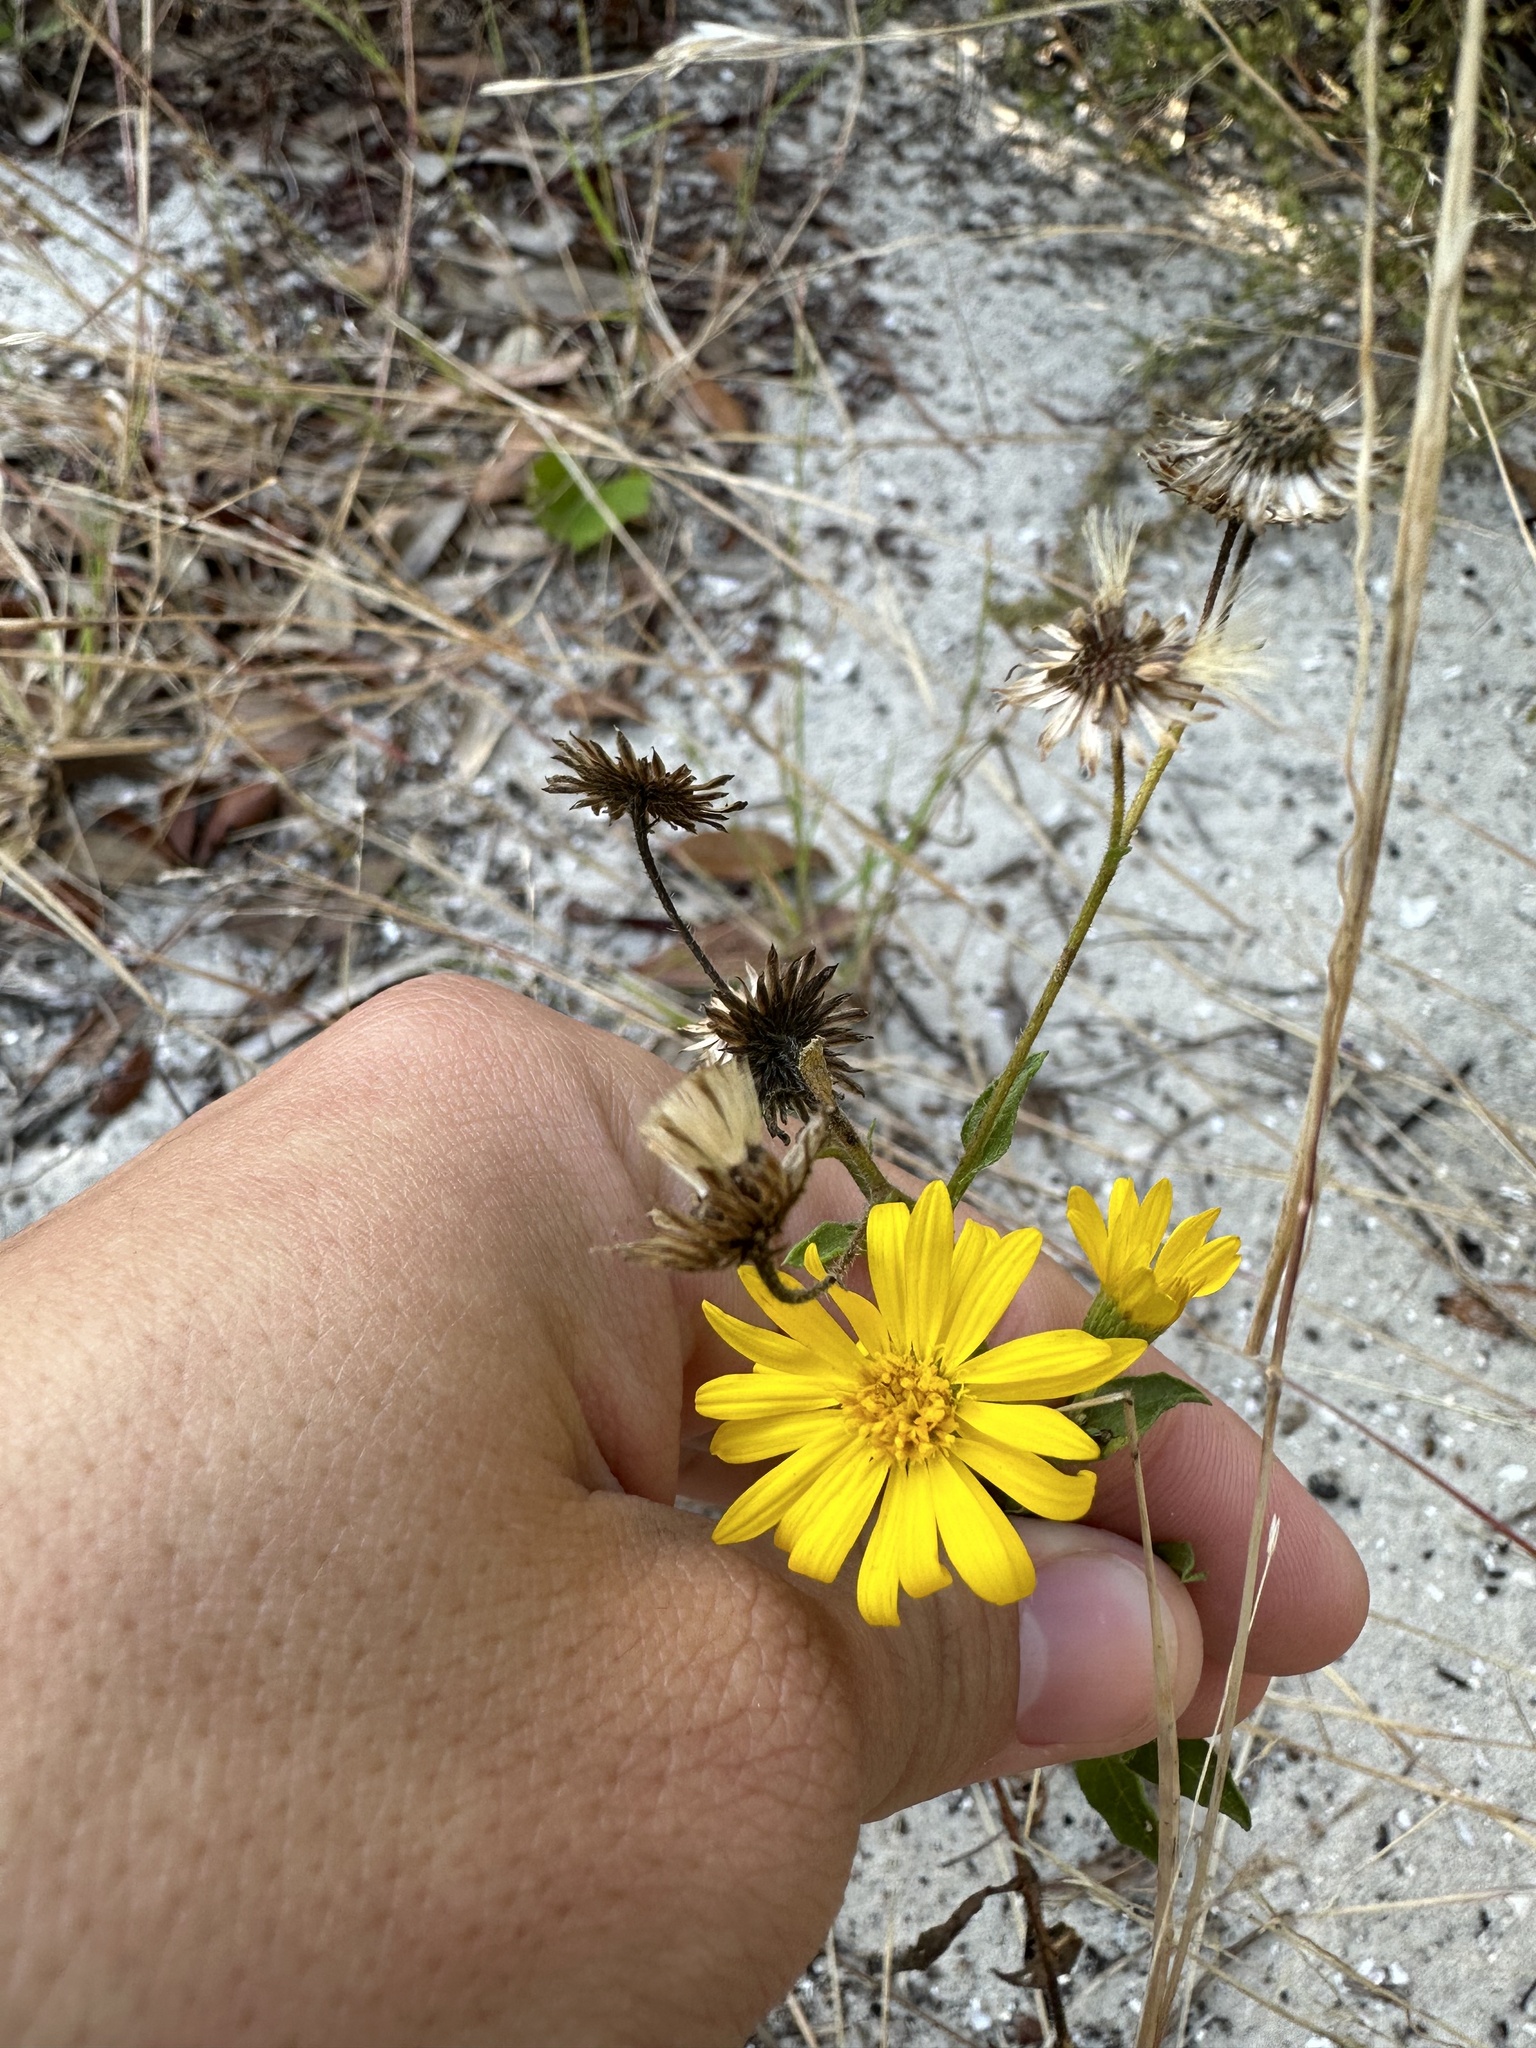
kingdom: Plantae
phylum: Tracheophyta
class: Magnoliopsida
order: Asterales
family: Asteraceae
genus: Heterotheca
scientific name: Heterotheca subaxillaris
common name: Camphorweed
